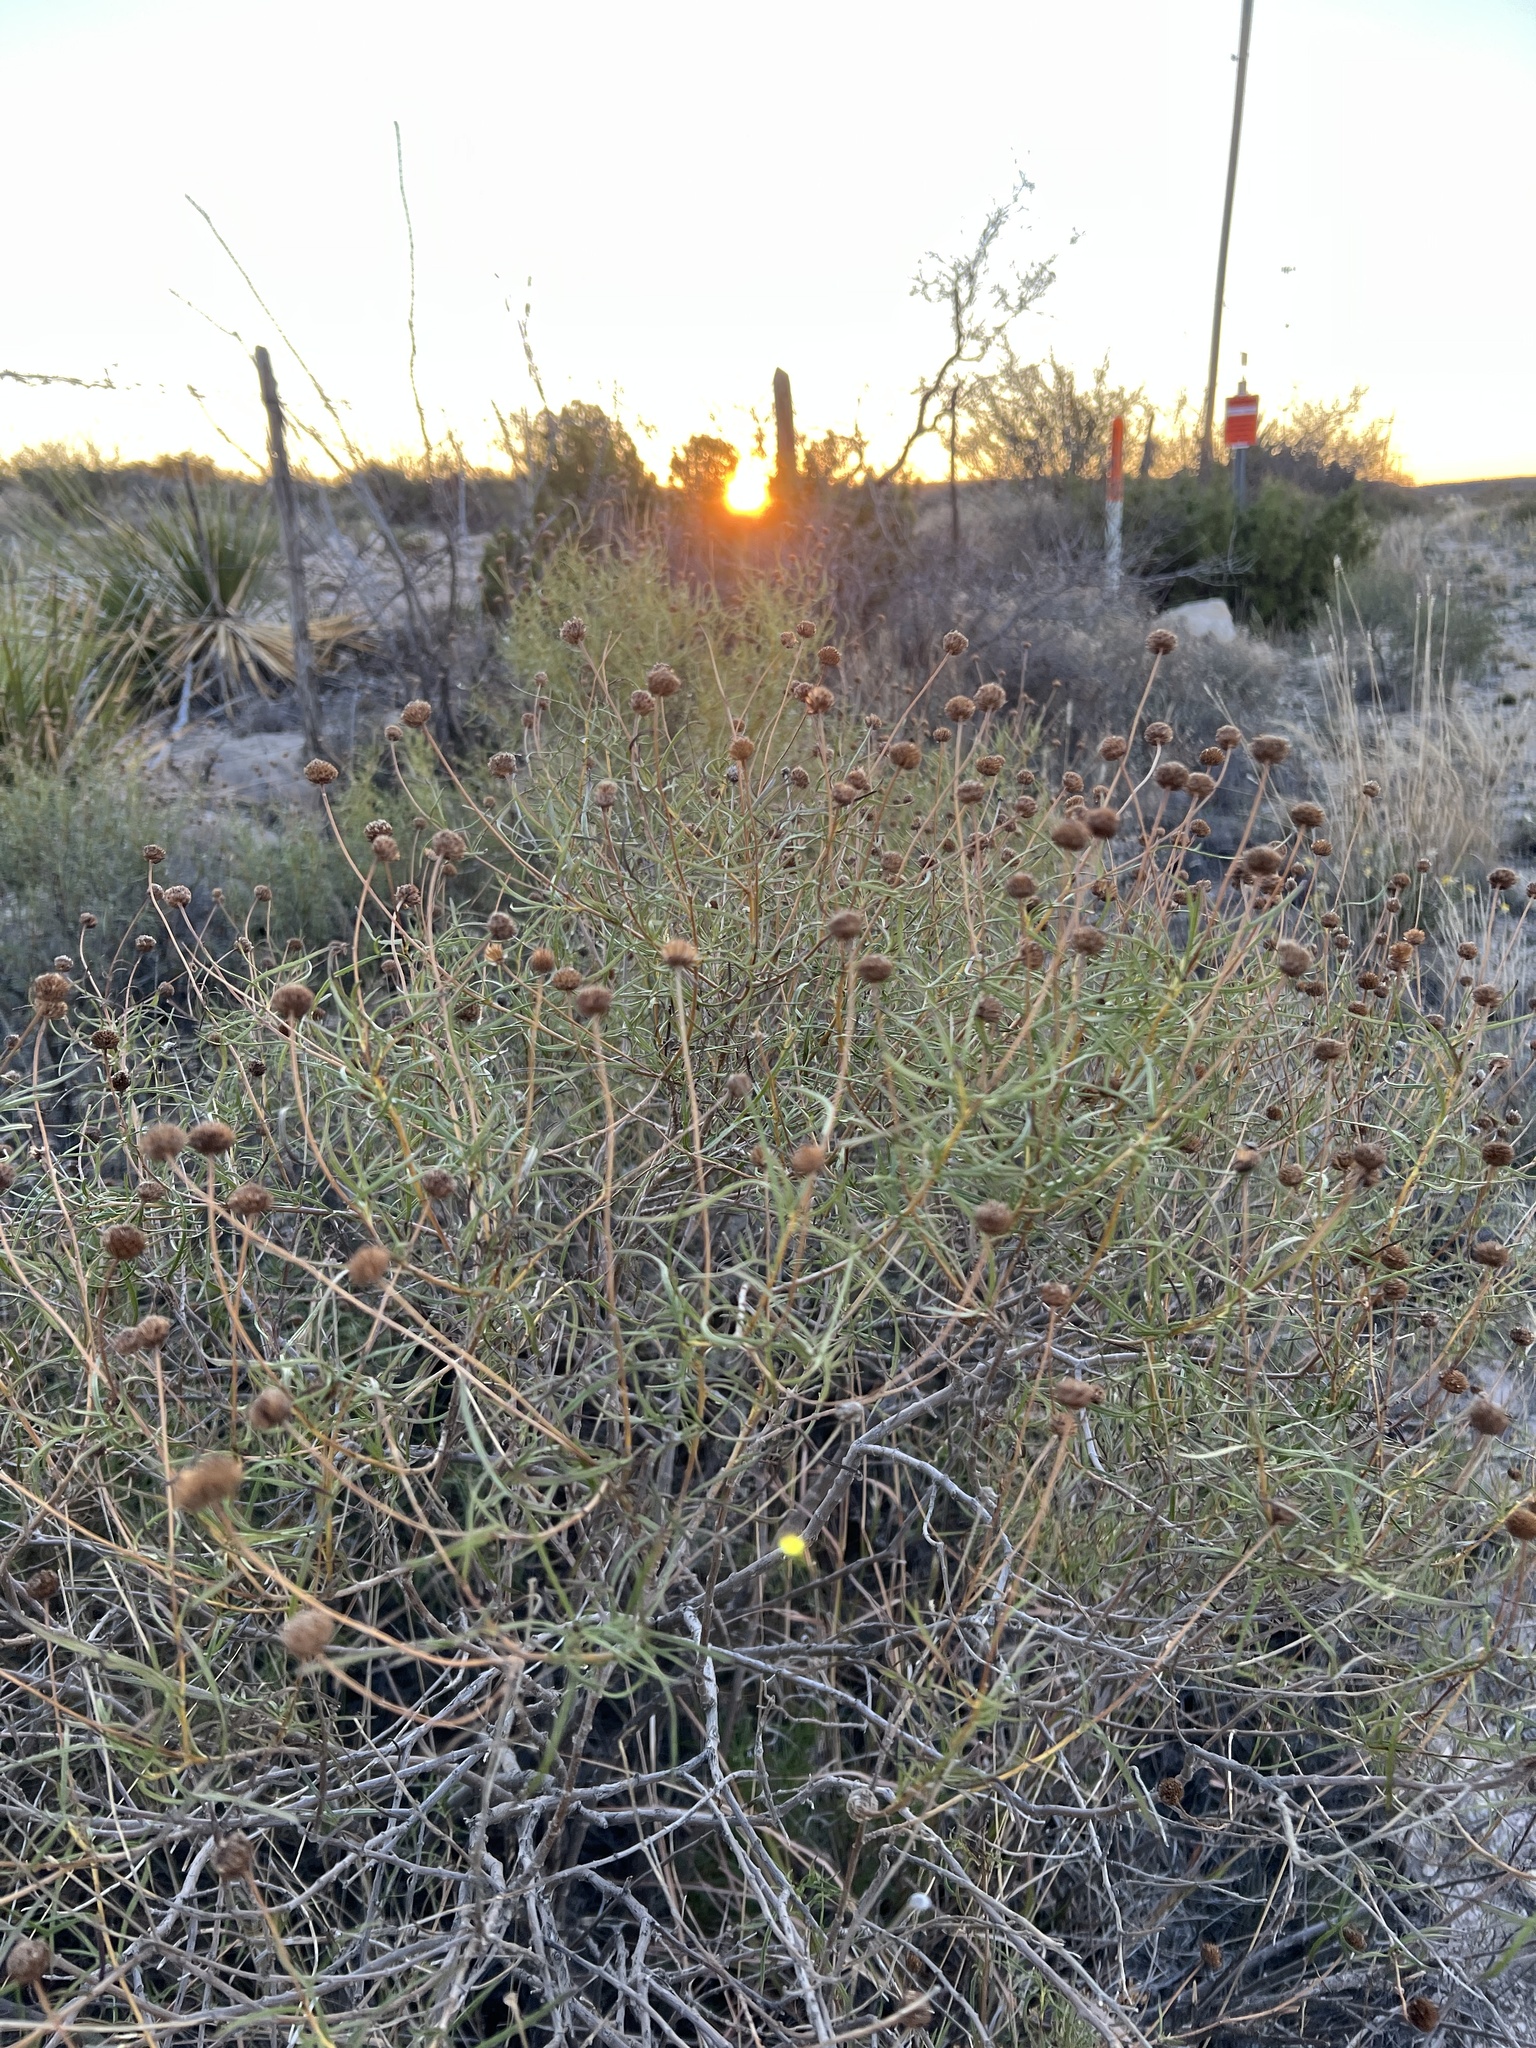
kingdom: Plantae
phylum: Tracheophyta
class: Magnoliopsida
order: Asterales
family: Asteraceae
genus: Sidneya
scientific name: Sidneya tenuifolia
